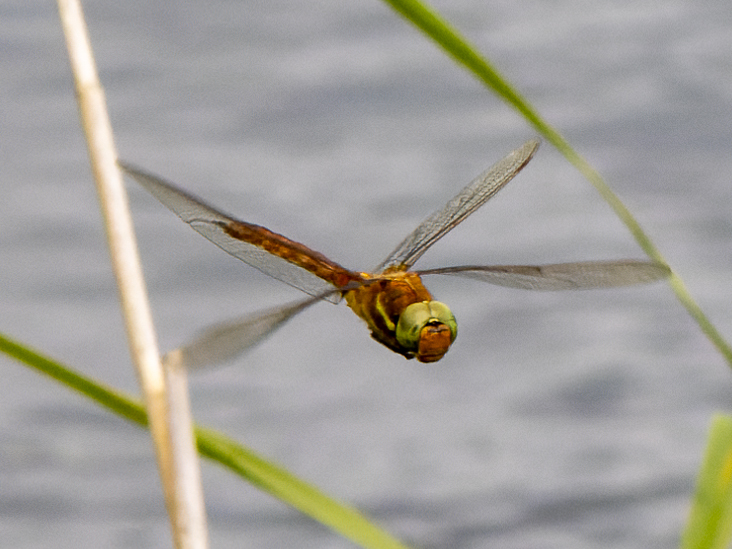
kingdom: Animalia
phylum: Arthropoda
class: Insecta
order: Odonata
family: Aeshnidae
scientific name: Aeshnidae
